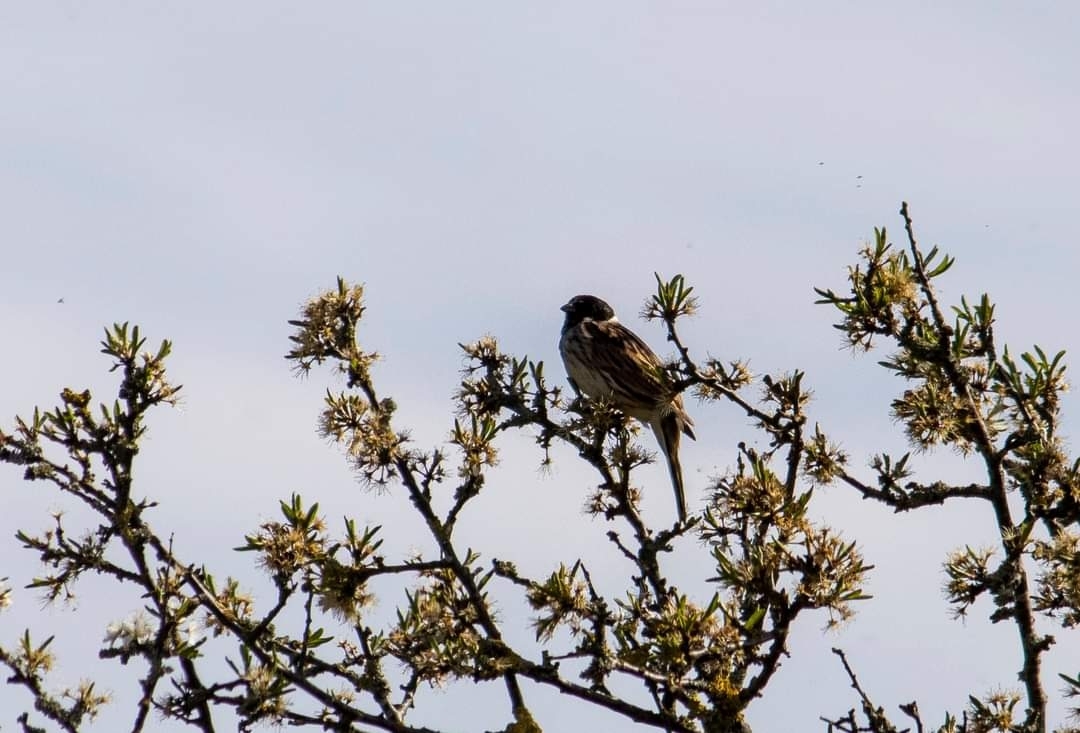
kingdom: Animalia
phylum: Chordata
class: Aves
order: Passeriformes
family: Emberizidae
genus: Emberiza
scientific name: Emberiza schoeniclus
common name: Reed bunting
